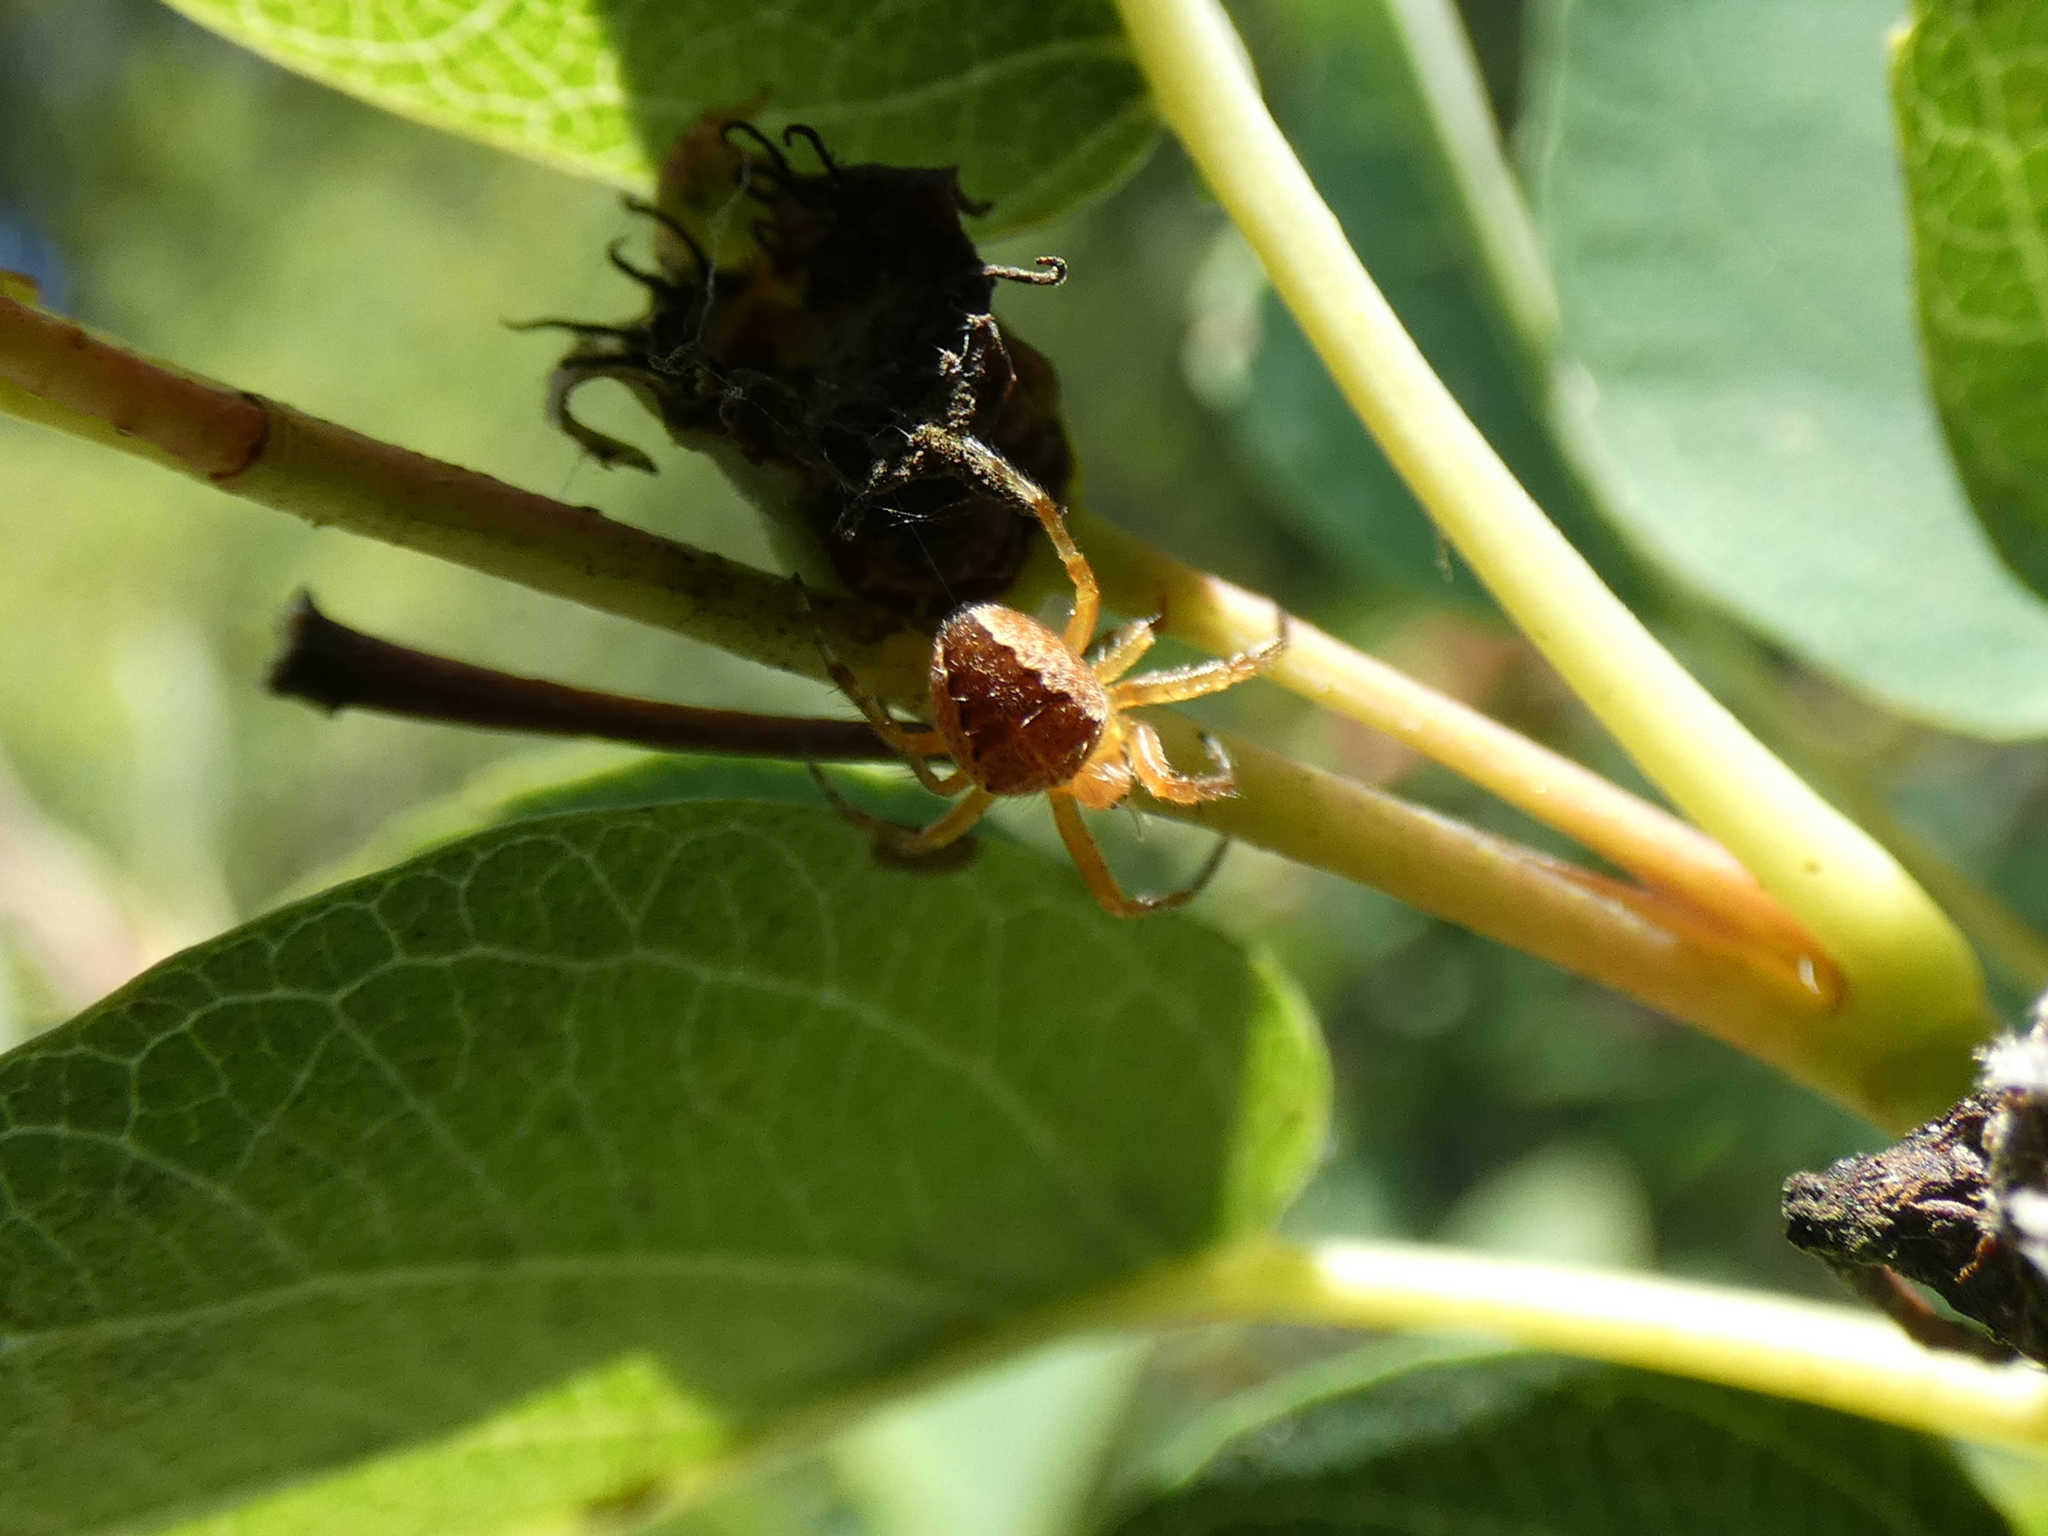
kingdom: Animalia
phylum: Arthropoda
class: Arachnida
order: Araneae
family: Araneidae
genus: Araneus
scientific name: Araneus diadematus
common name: Cross orbweaver
